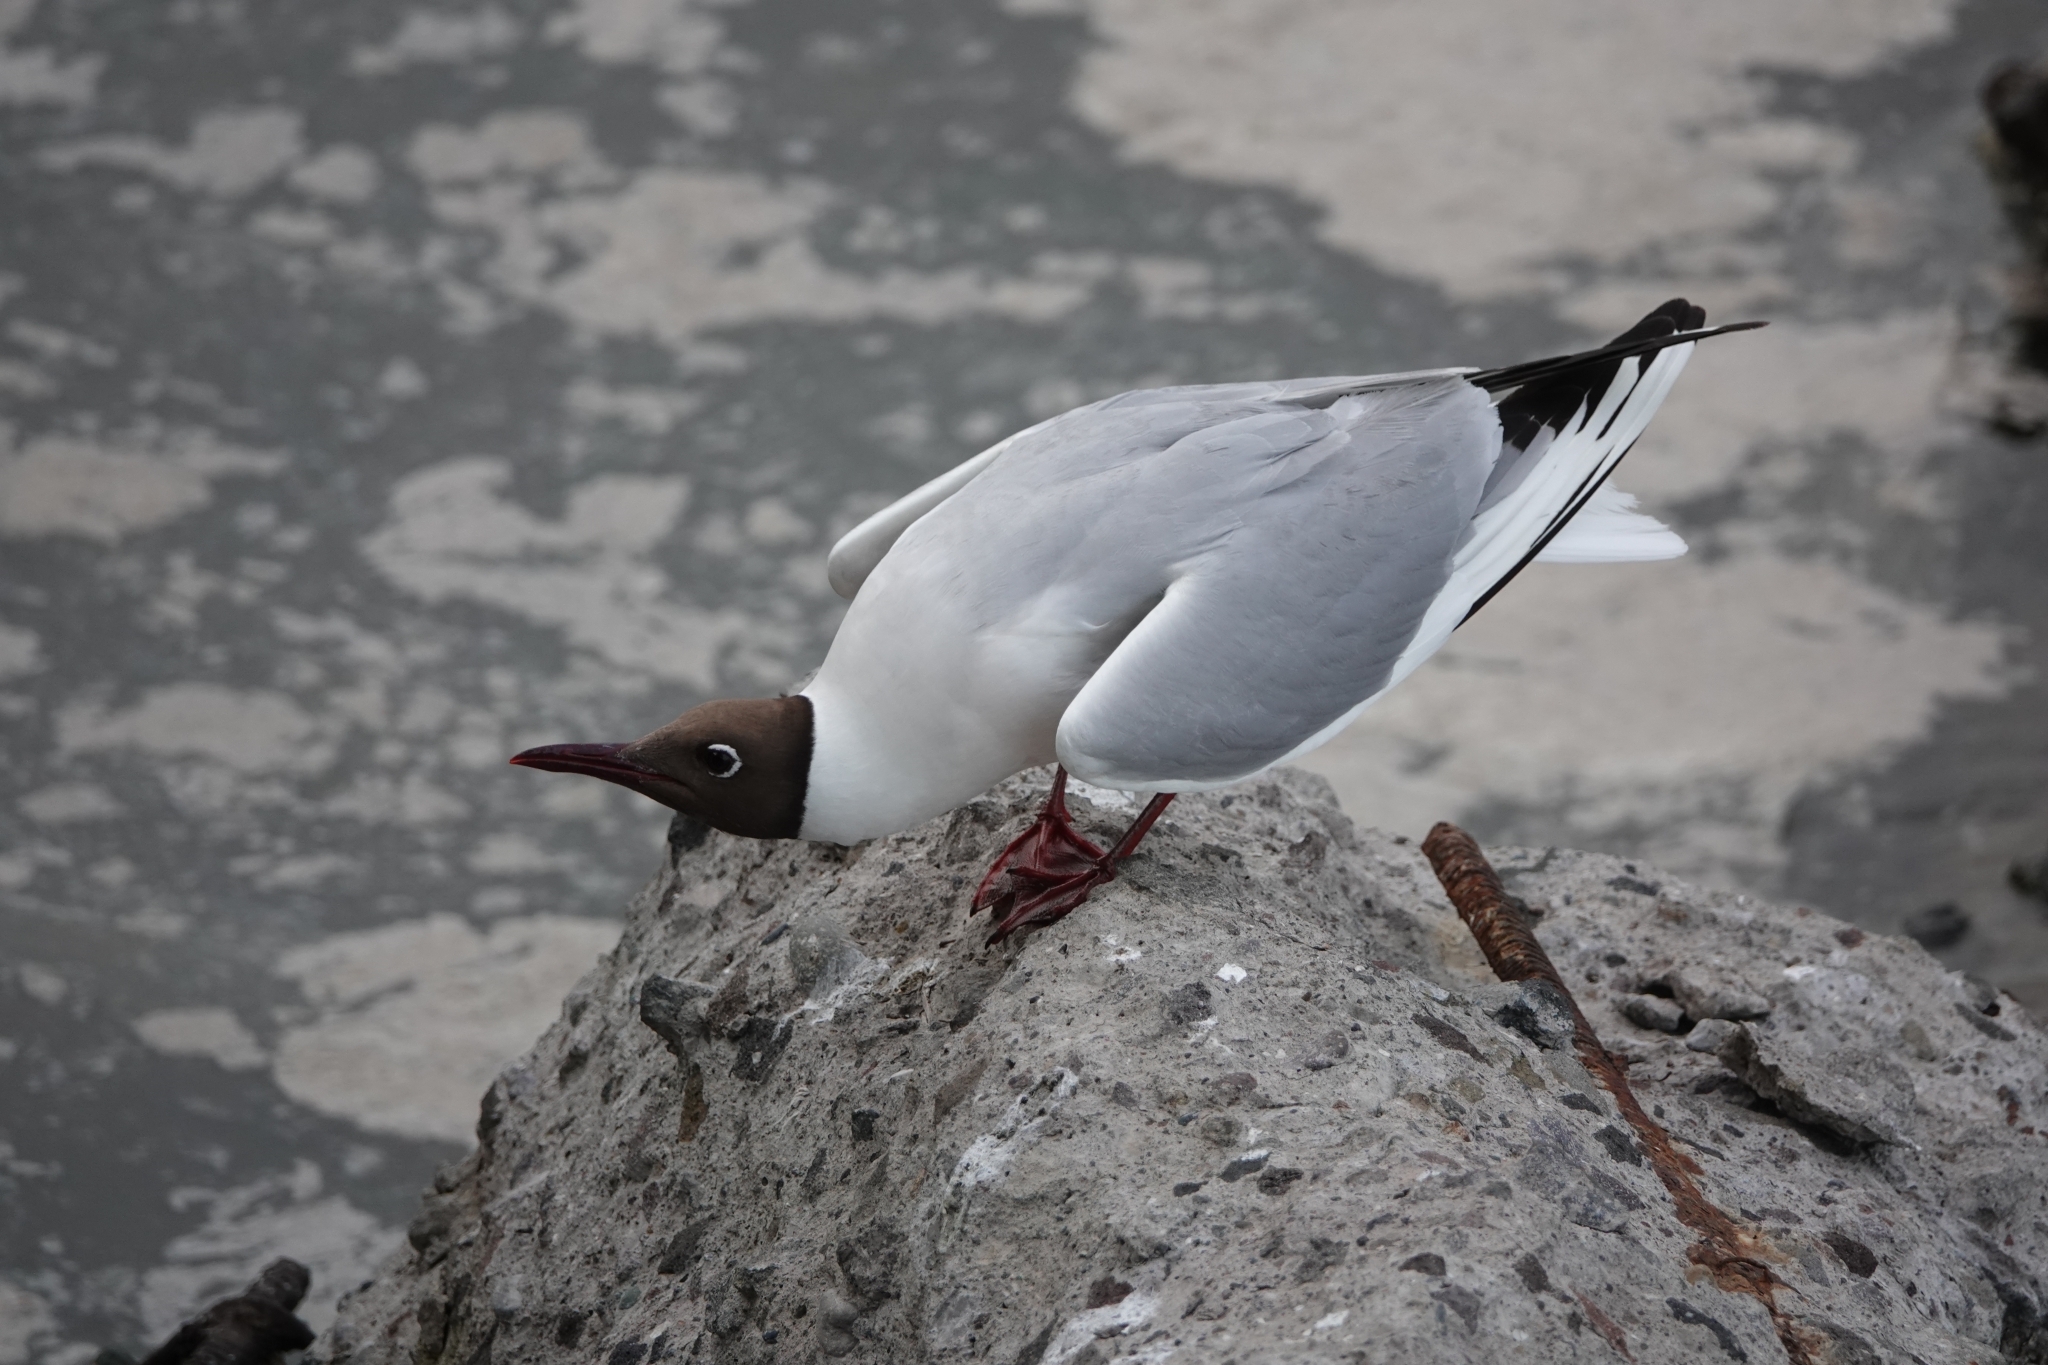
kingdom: Animalia
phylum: Chordata
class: Aves
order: Charadriiformes
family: Laridae
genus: Chroicocephalus
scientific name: Chroicocephalus ridibundus
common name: Black-headed gull
